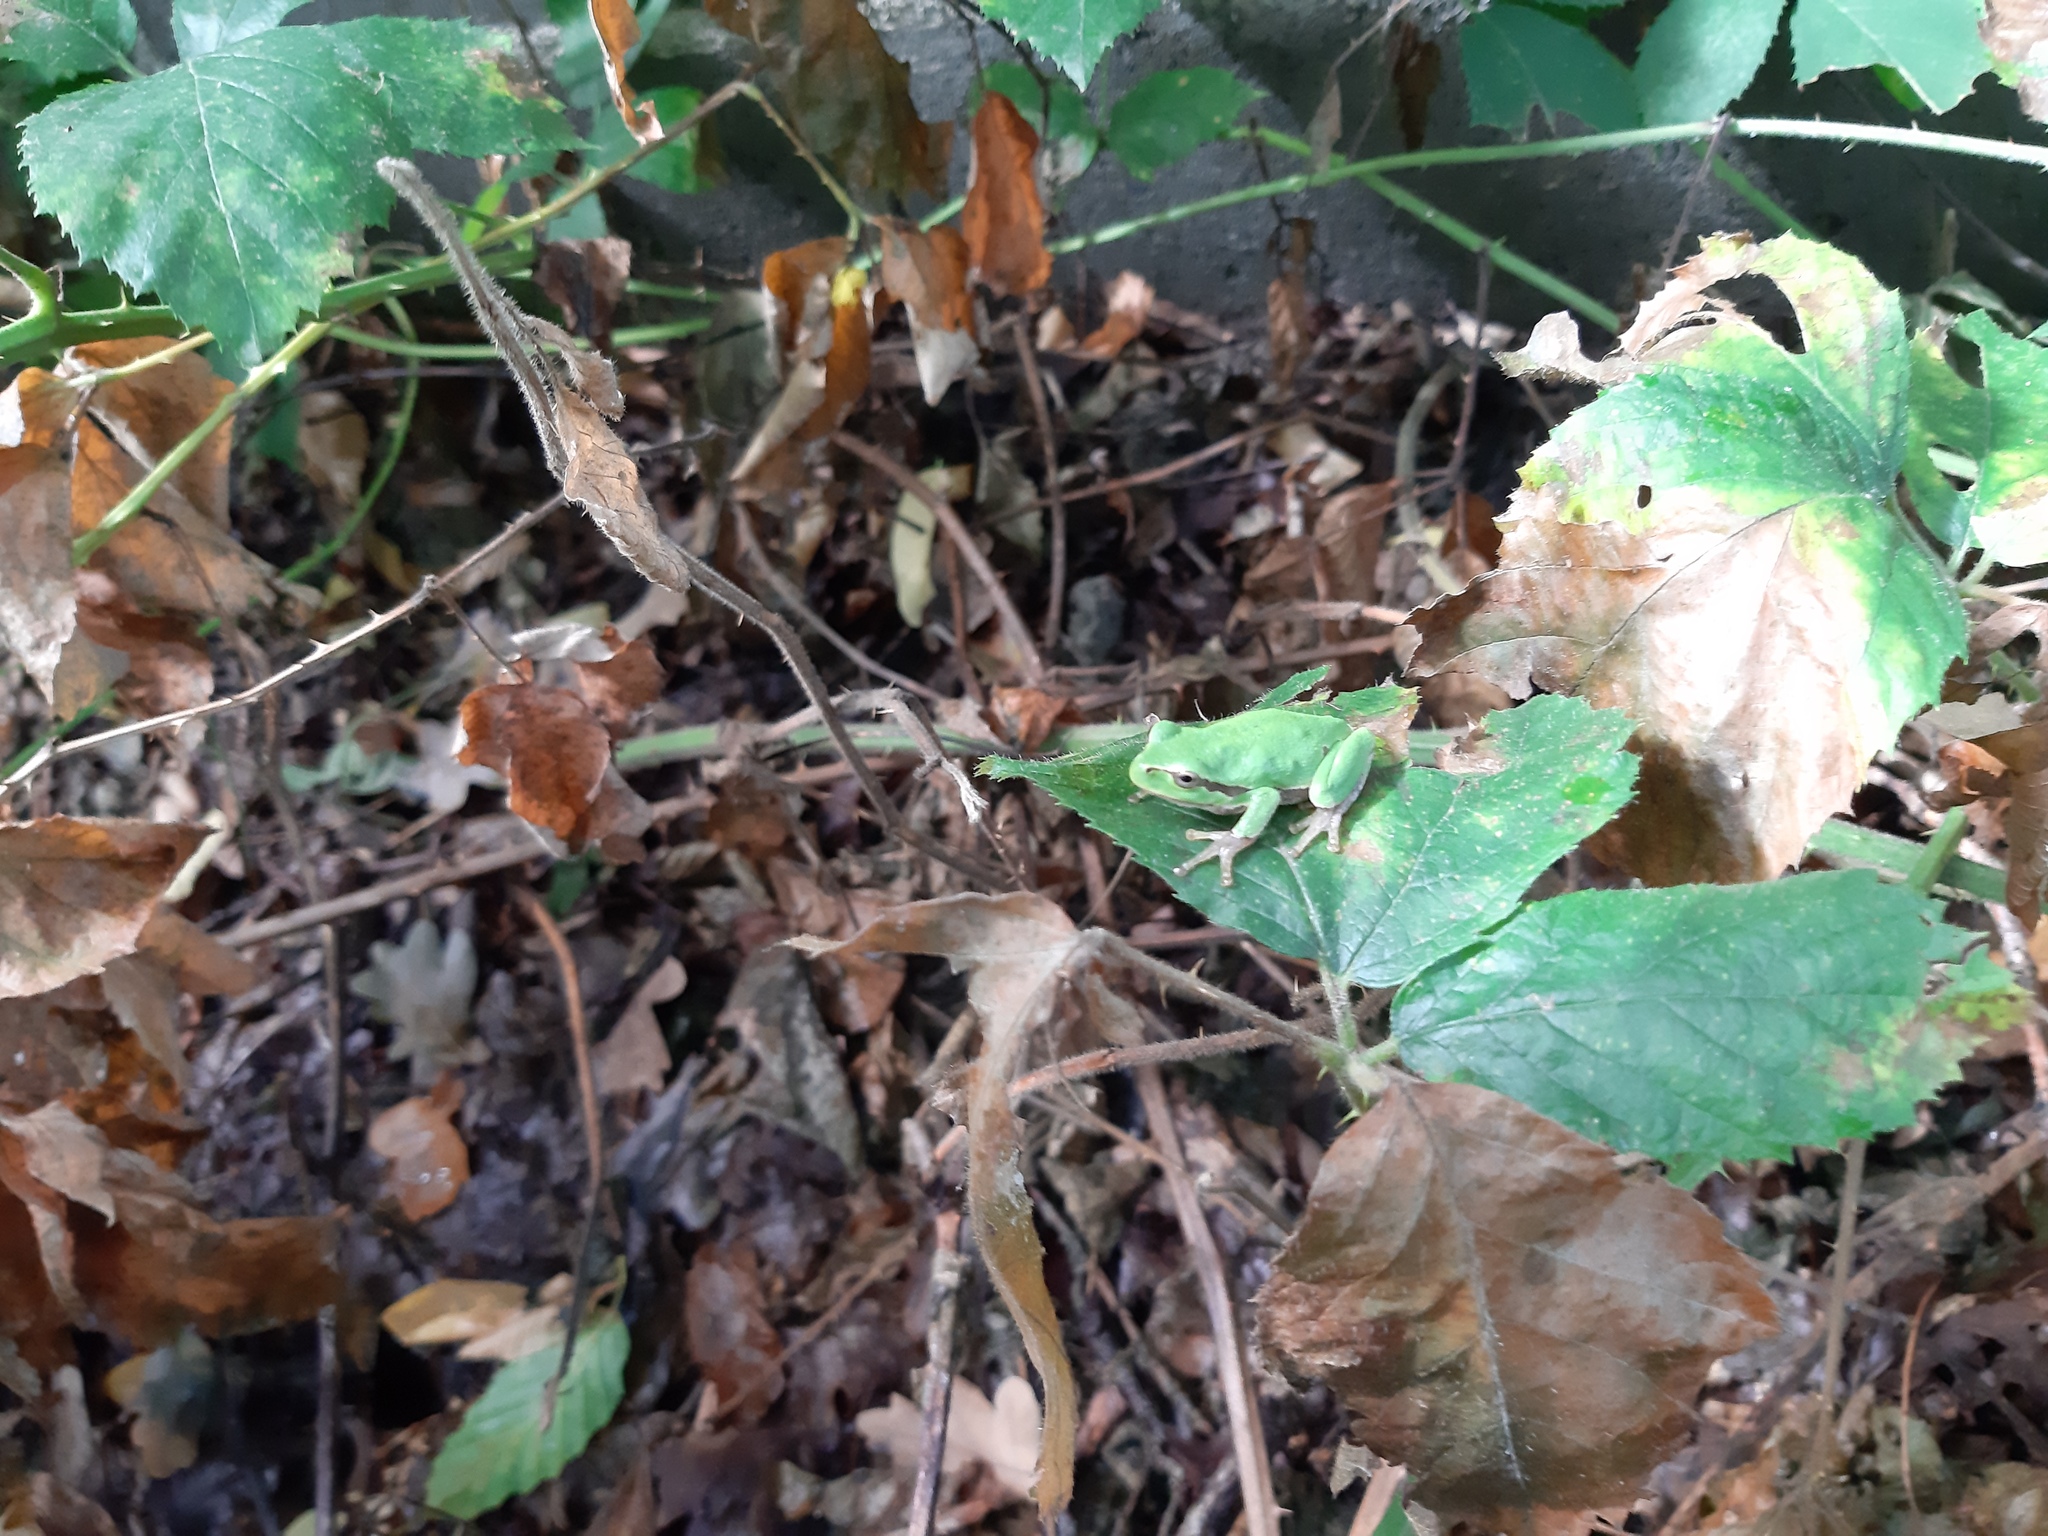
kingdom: Animalia
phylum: Chordata
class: Amphibia
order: Anura
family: Hylidae
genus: Hyla
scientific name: Hyla intermedia
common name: Italian tree frog
